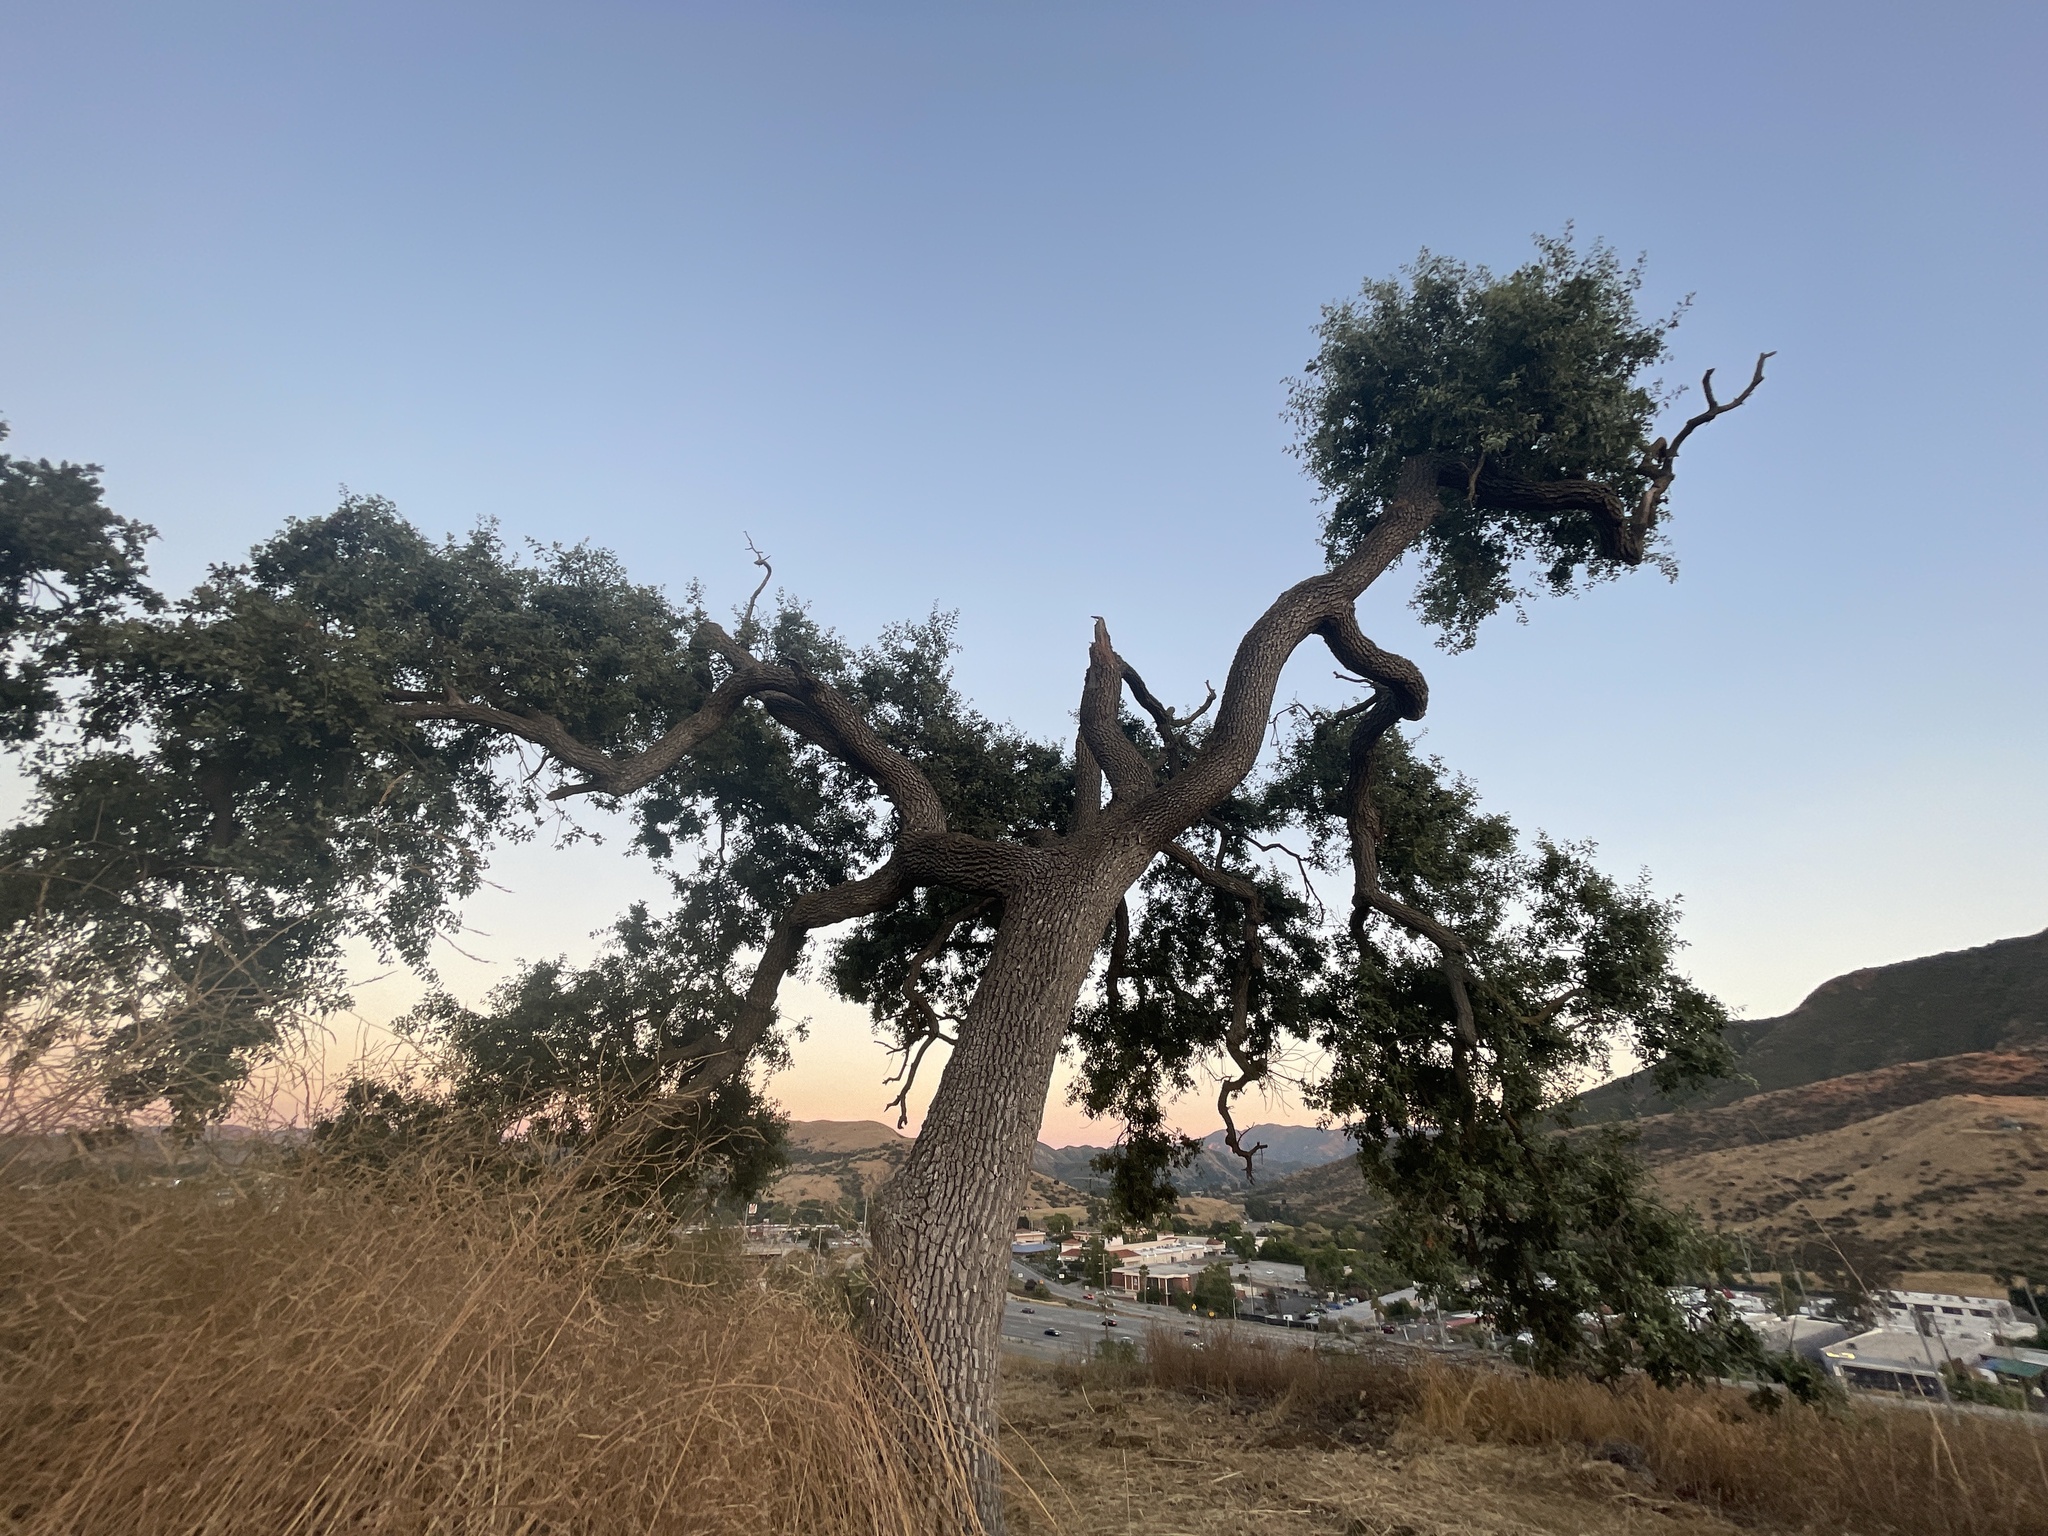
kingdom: Plantae
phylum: Tracheophyta
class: Magnoliopsida
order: Fagales
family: Fagaceae
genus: Quercus
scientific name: Quercus lobata
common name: Valley oak
